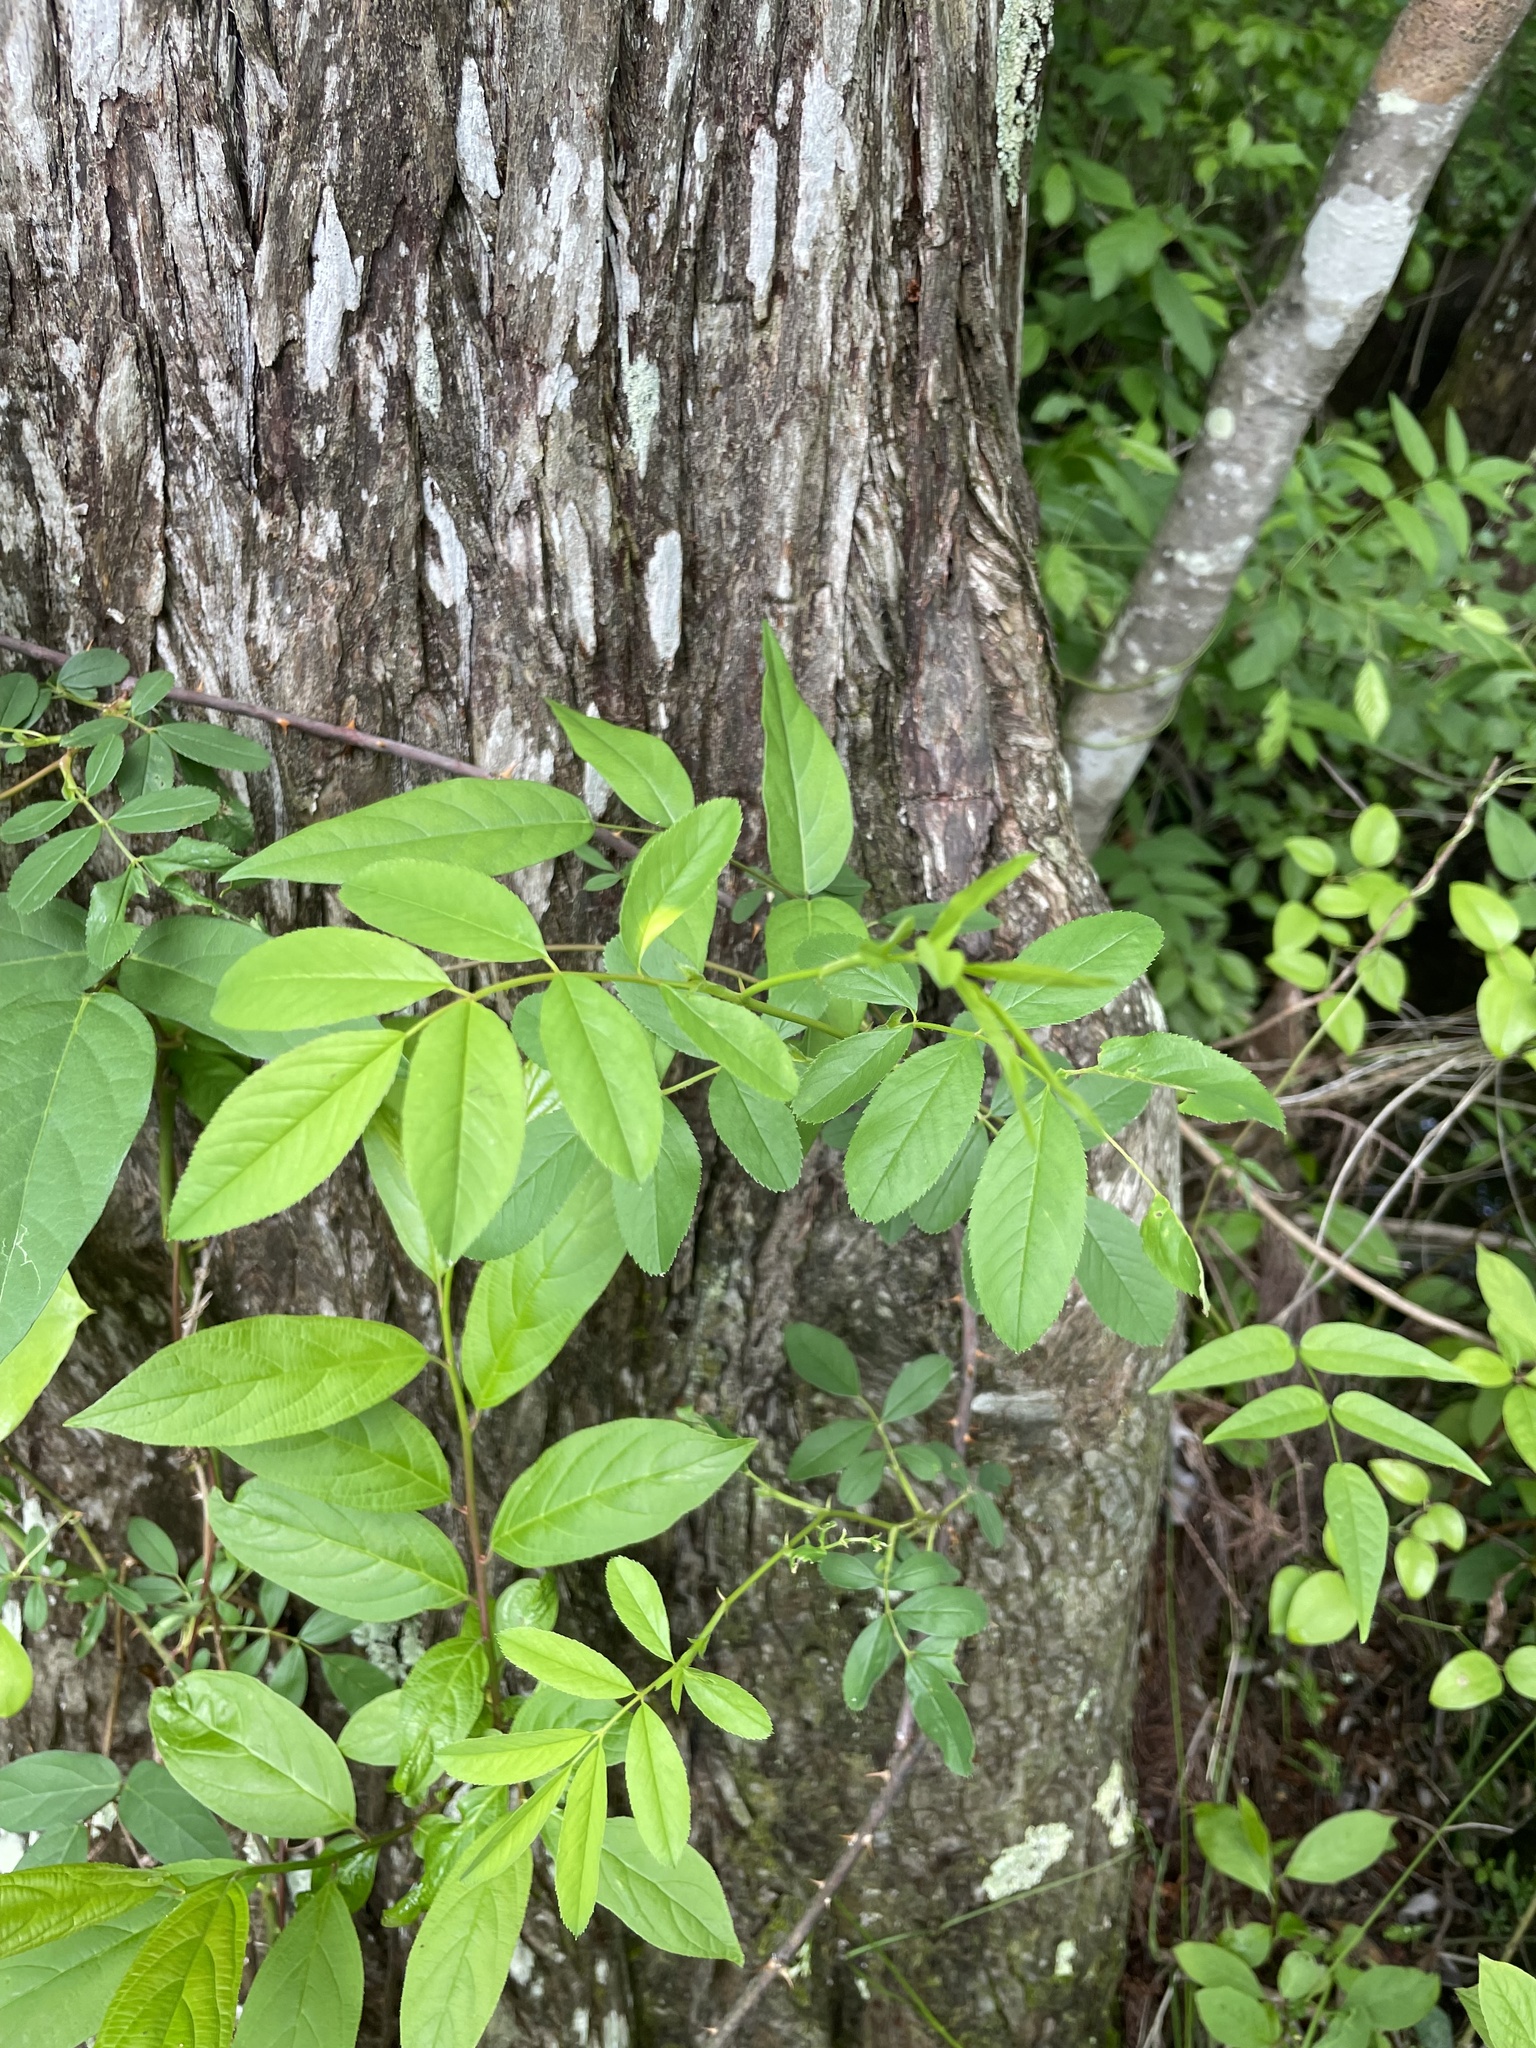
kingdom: Plantae
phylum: Tracheophyta
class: Magnoliopsida
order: Rosales
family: Rosaceae
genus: Rosa
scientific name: Rosa palustris
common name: Swamp rose
